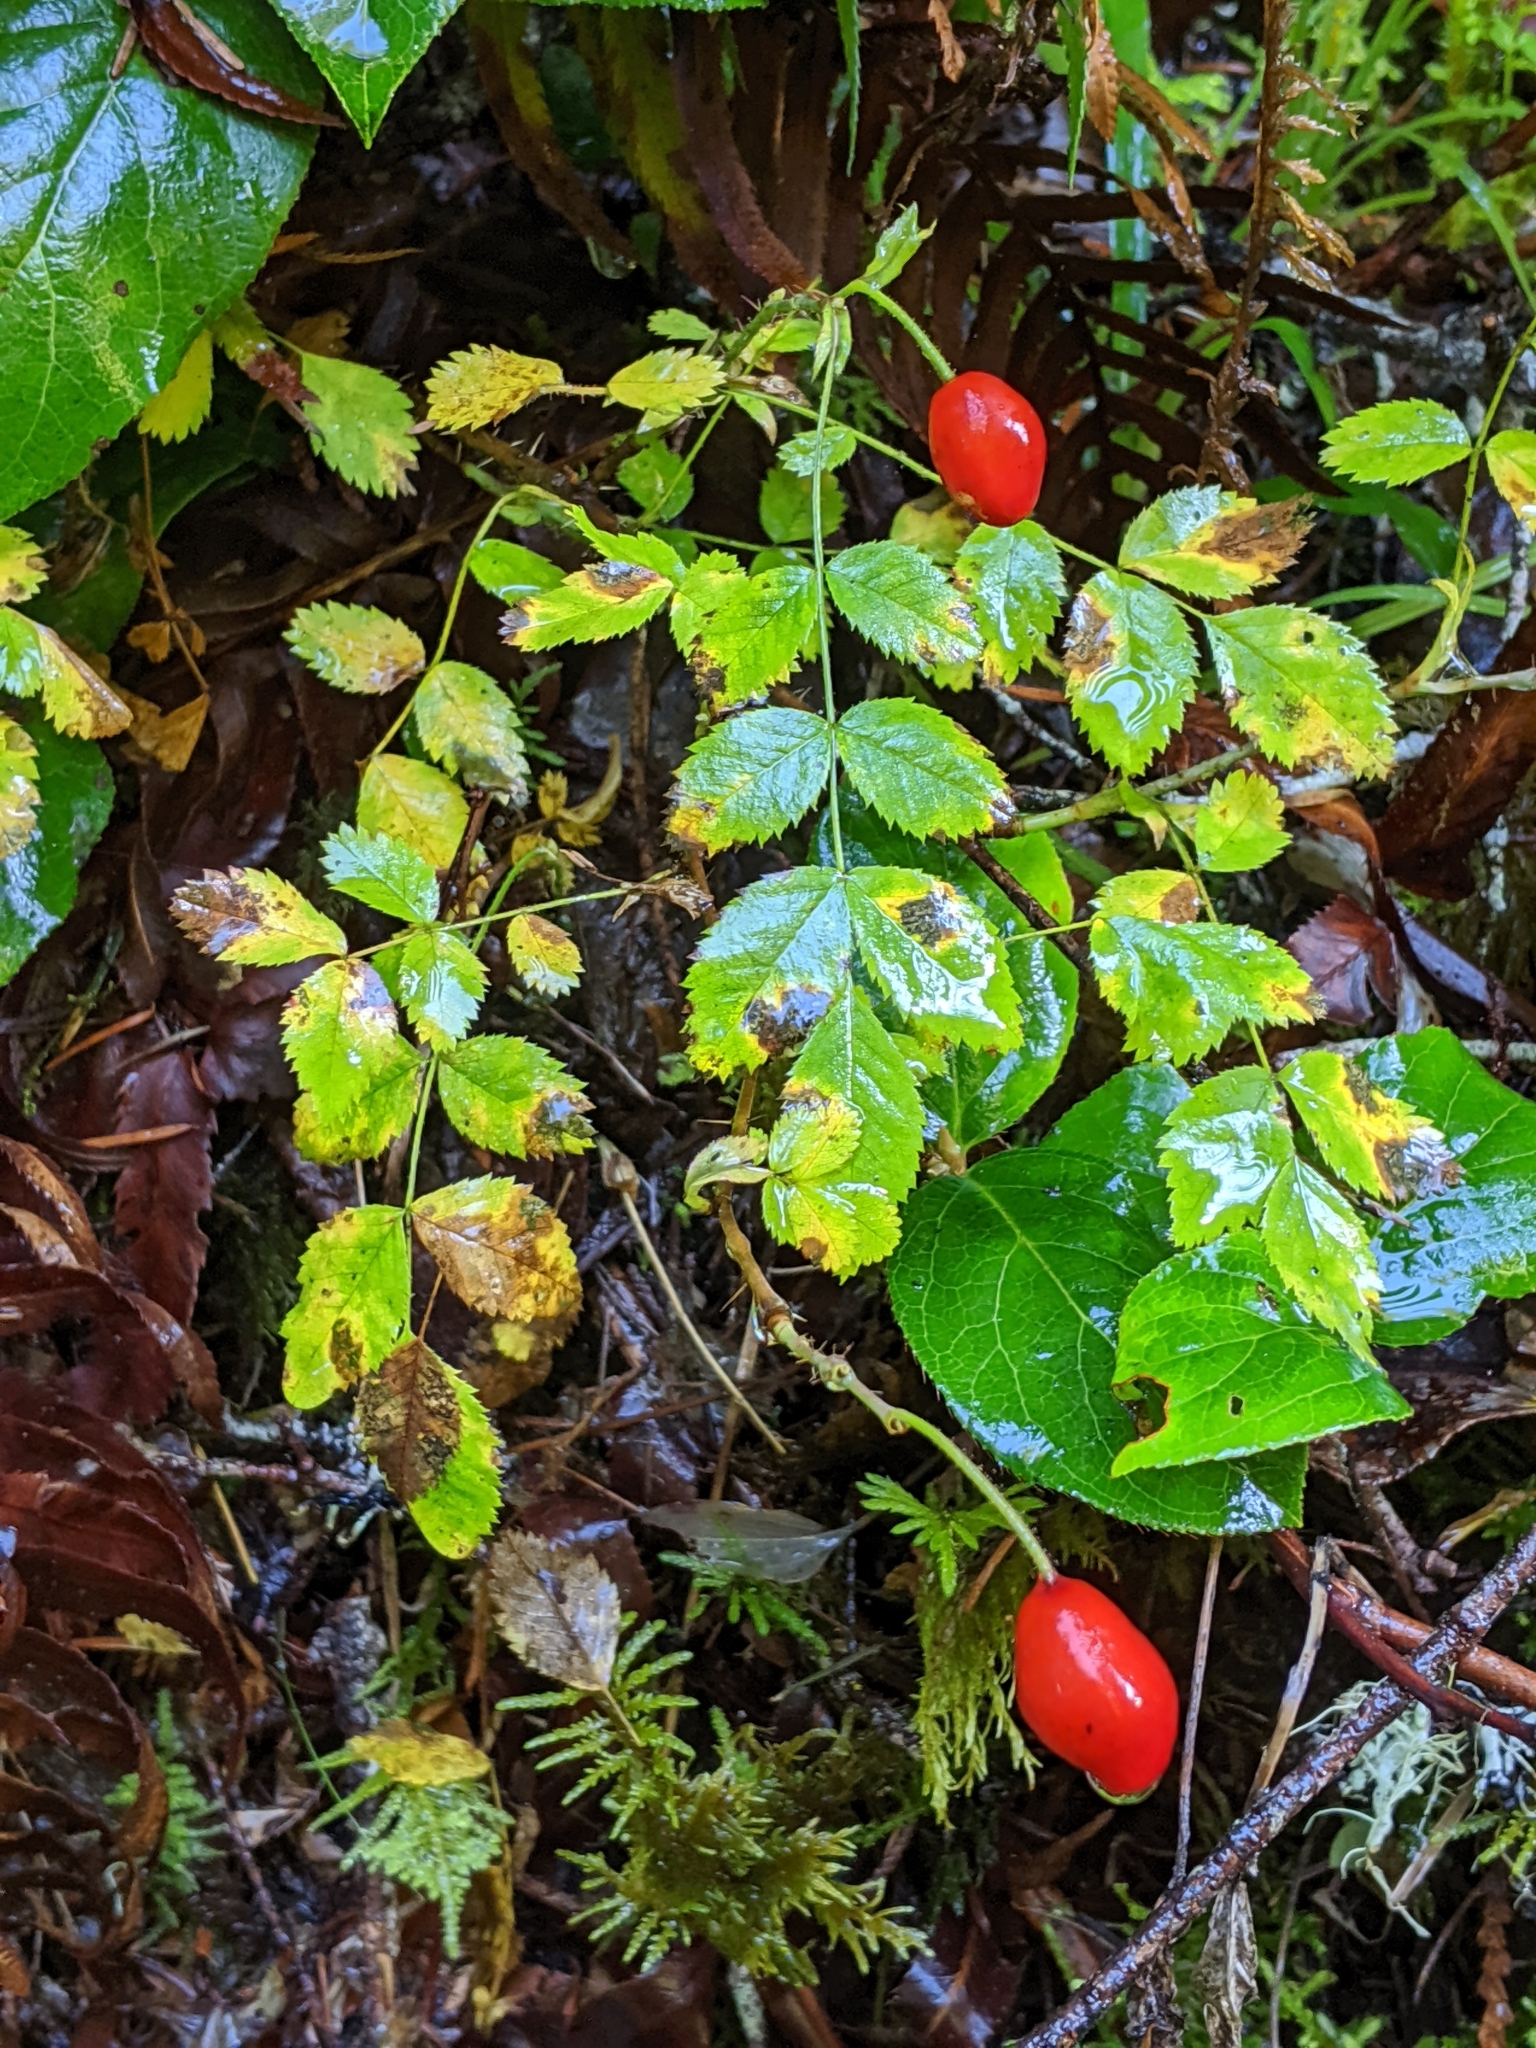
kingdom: Plantae
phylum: Tracheophyta
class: Magnoliopsida
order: Rosales
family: Rosaceae
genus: Rosa
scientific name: Rosa gymnocarpa
